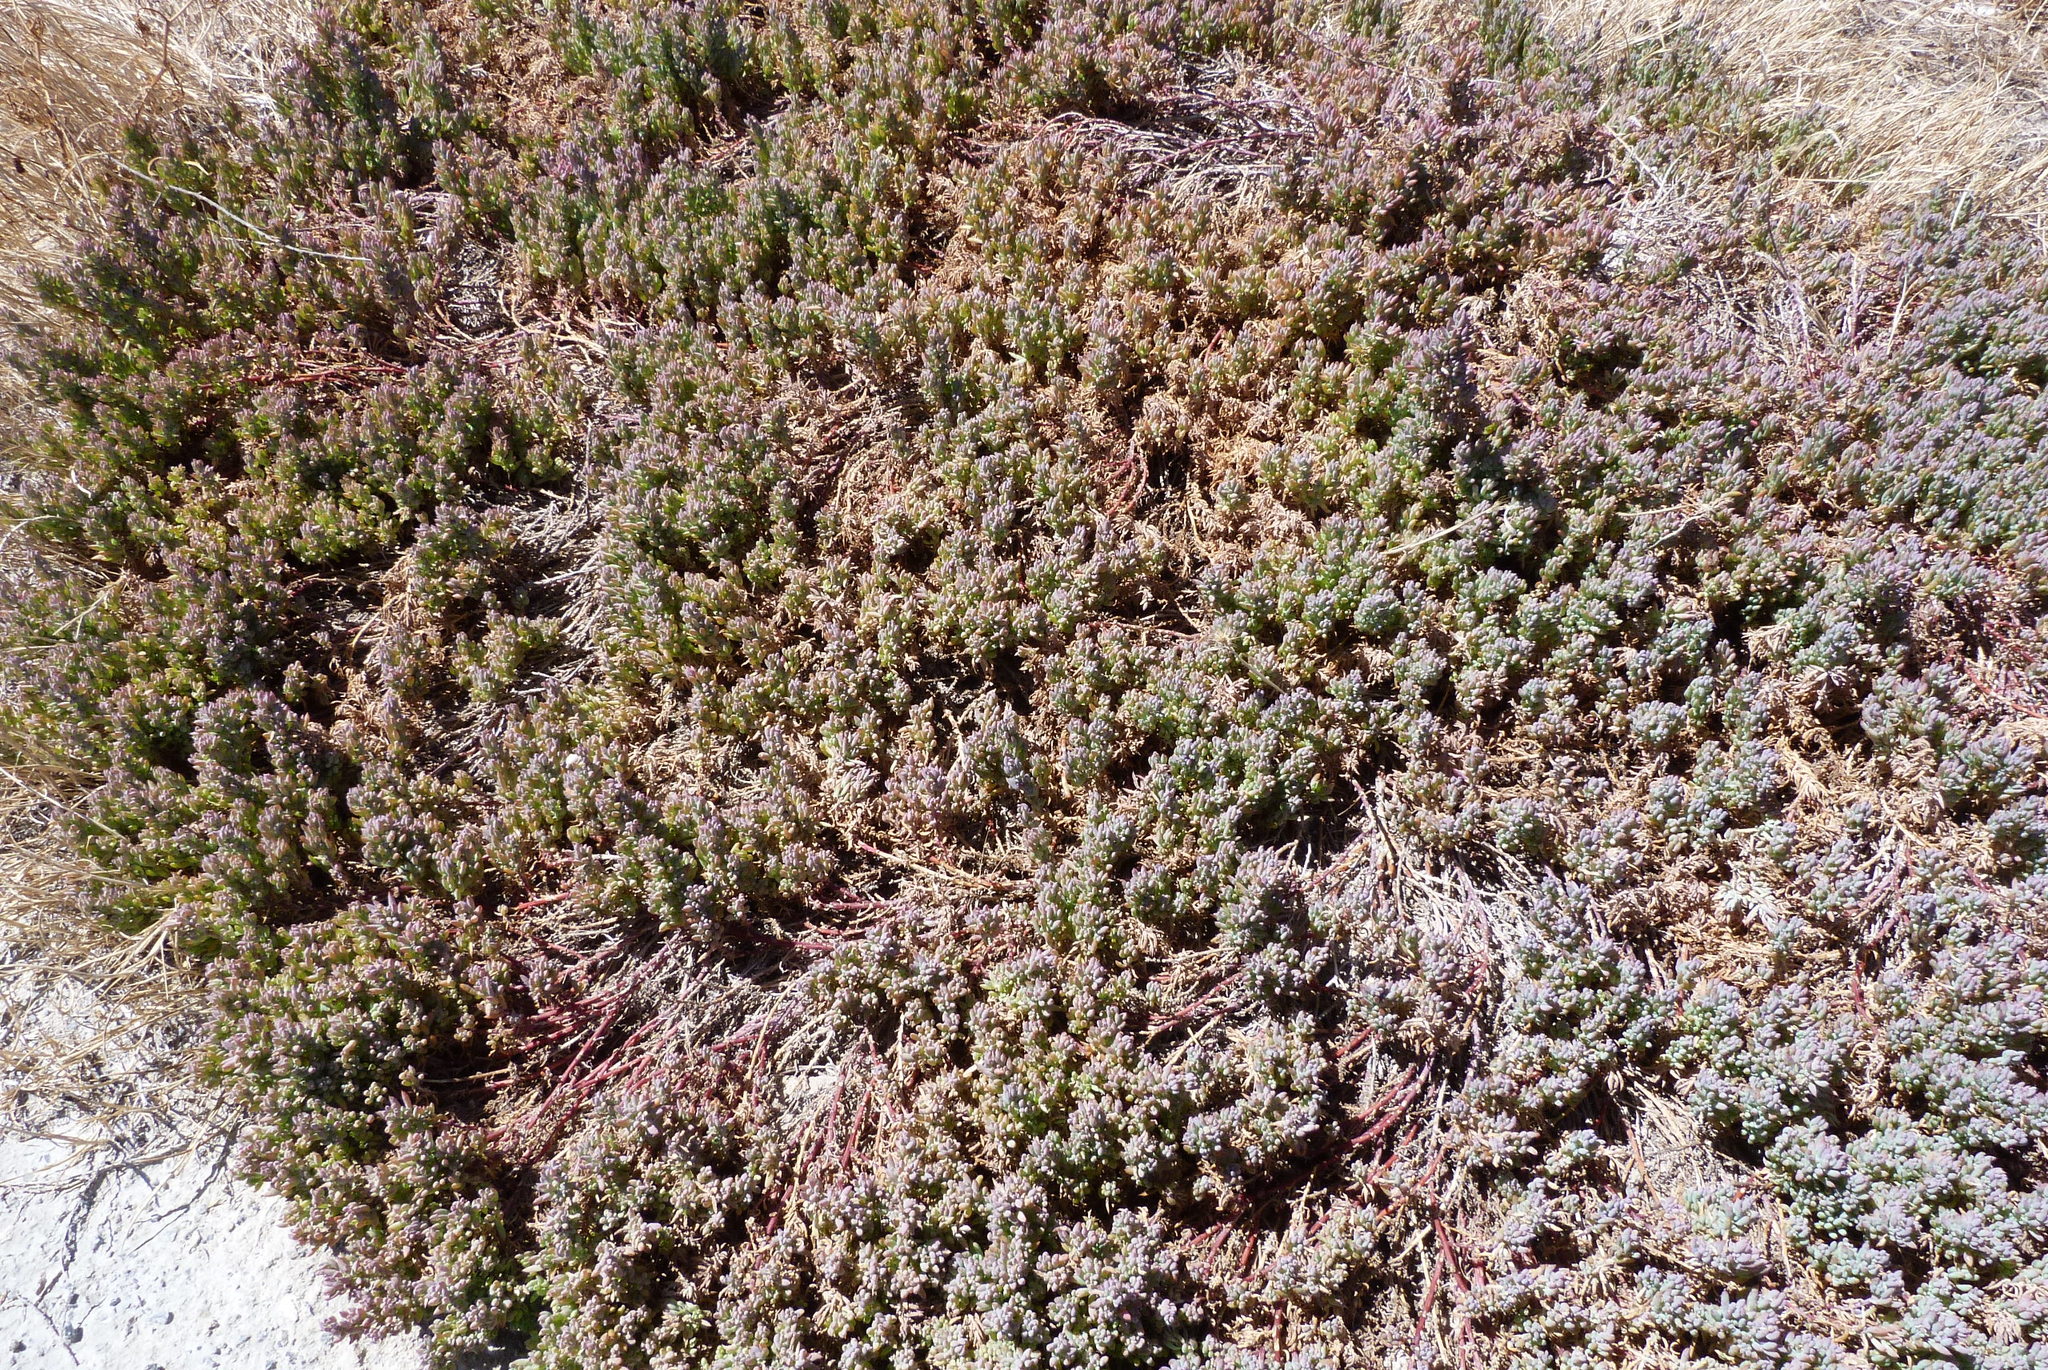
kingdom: Plantae
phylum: Tracheophyta
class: Magnoliopsida
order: Caryophyllales
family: Amaranthaceae
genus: Threlkeldia
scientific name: Threlkeldia diffusa
